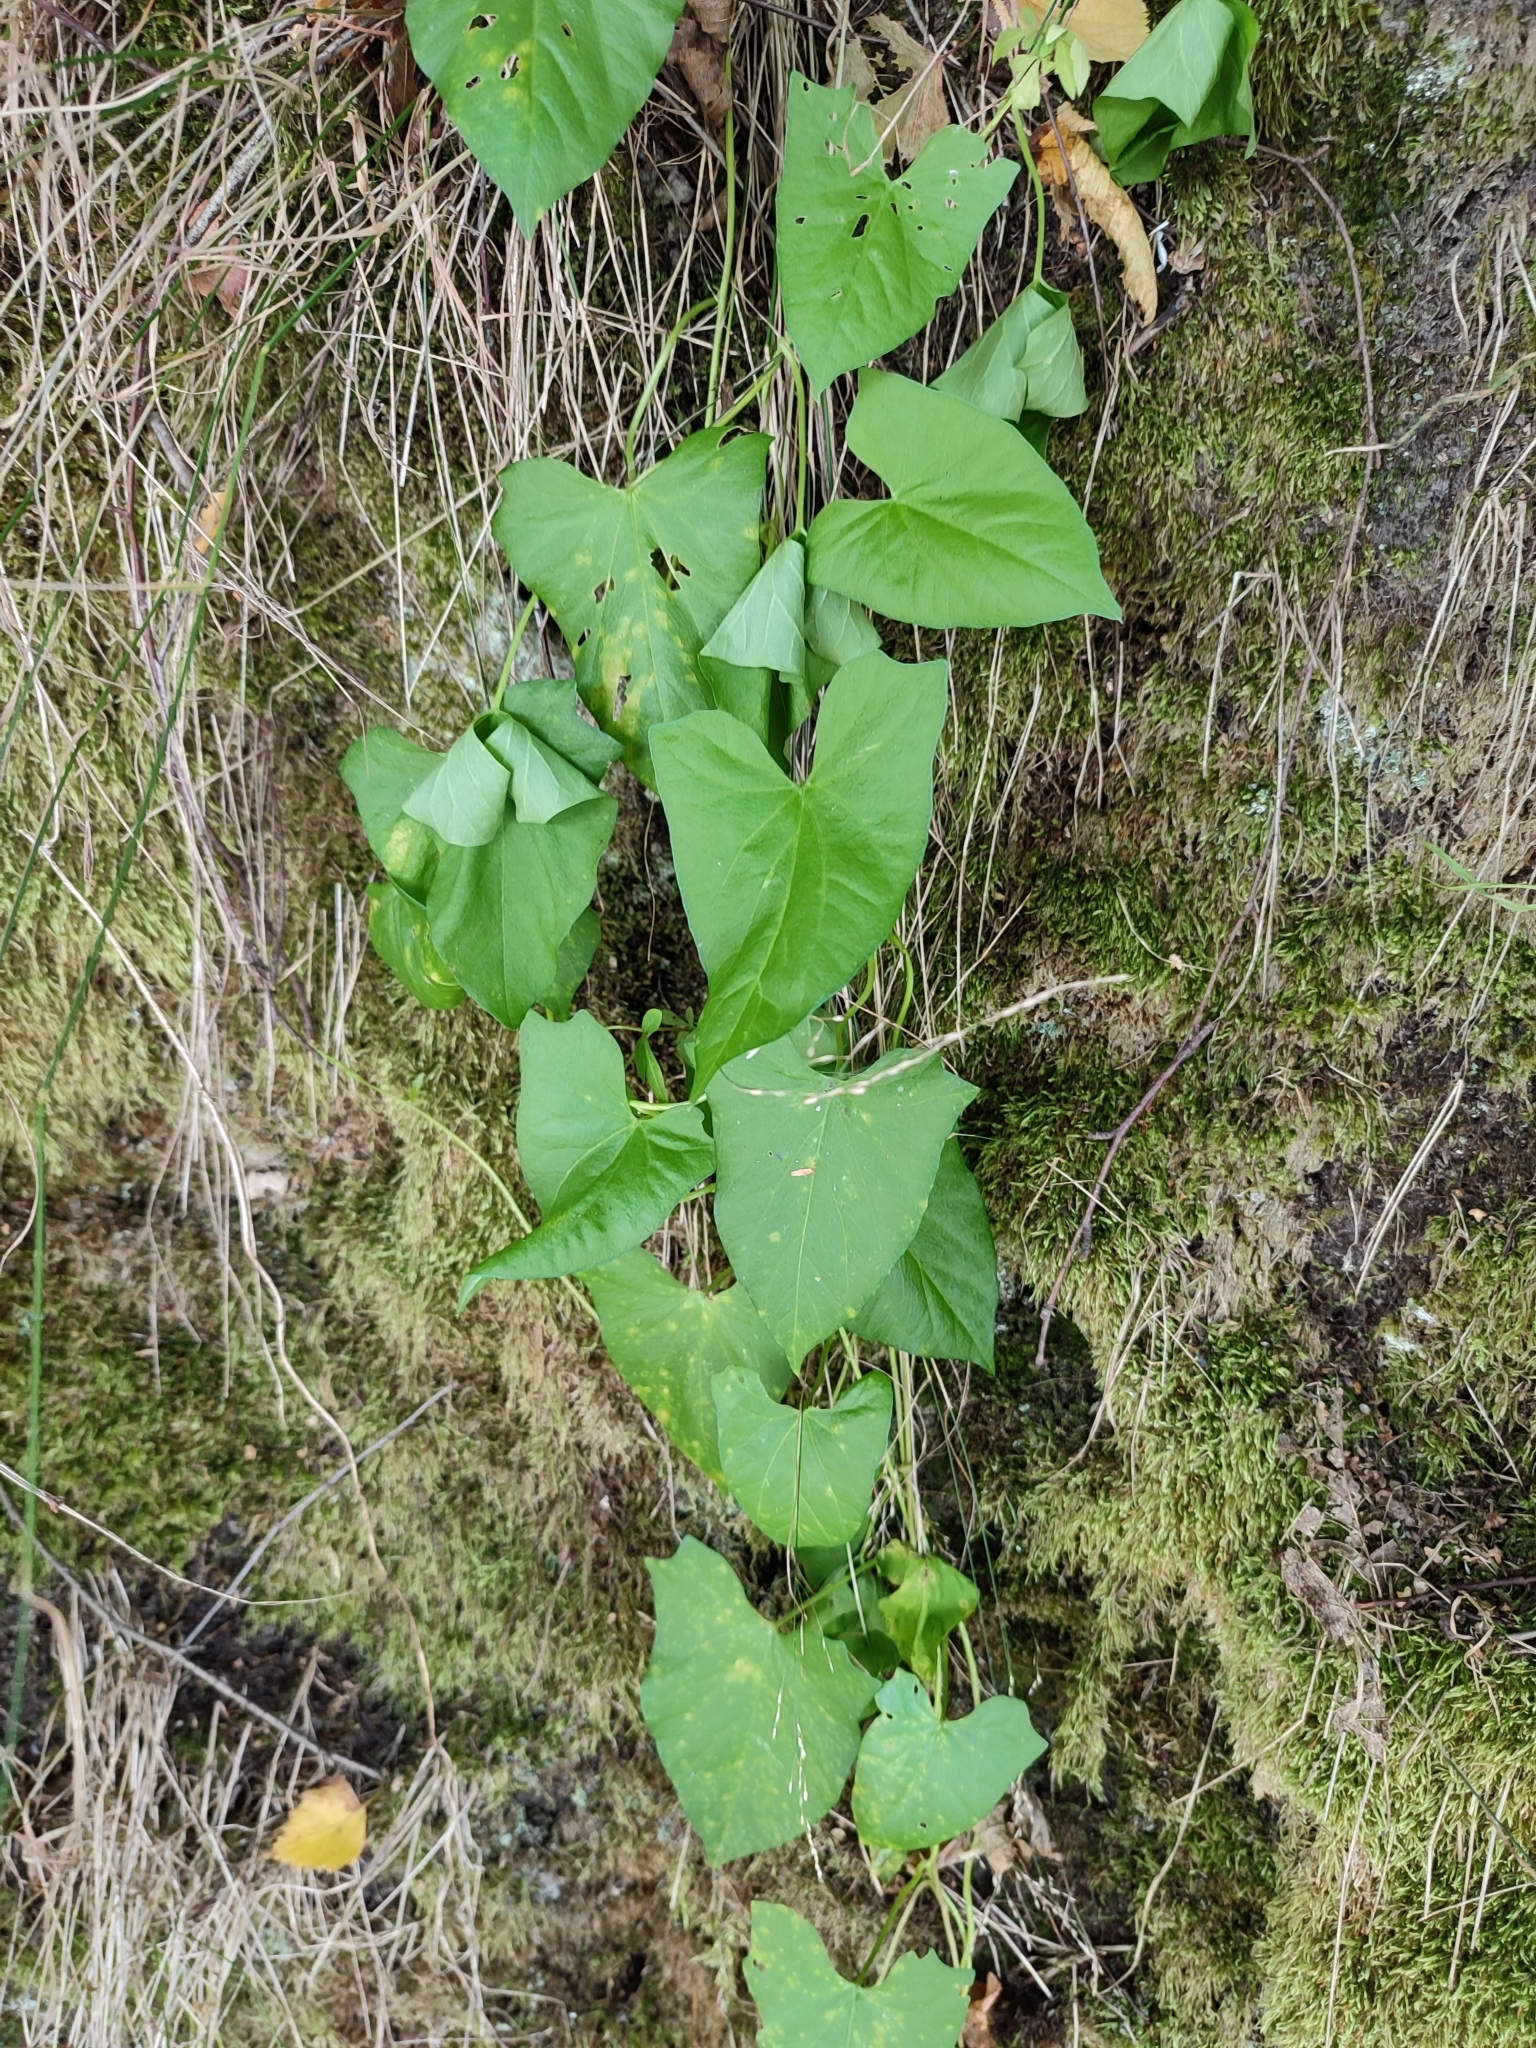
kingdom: Plantae
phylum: Tracheophyta
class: Magnoliopsida
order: Solanales
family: Convolvulaceae
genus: Calystegia
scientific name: Calystegia sepium
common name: Hedge bindweed
